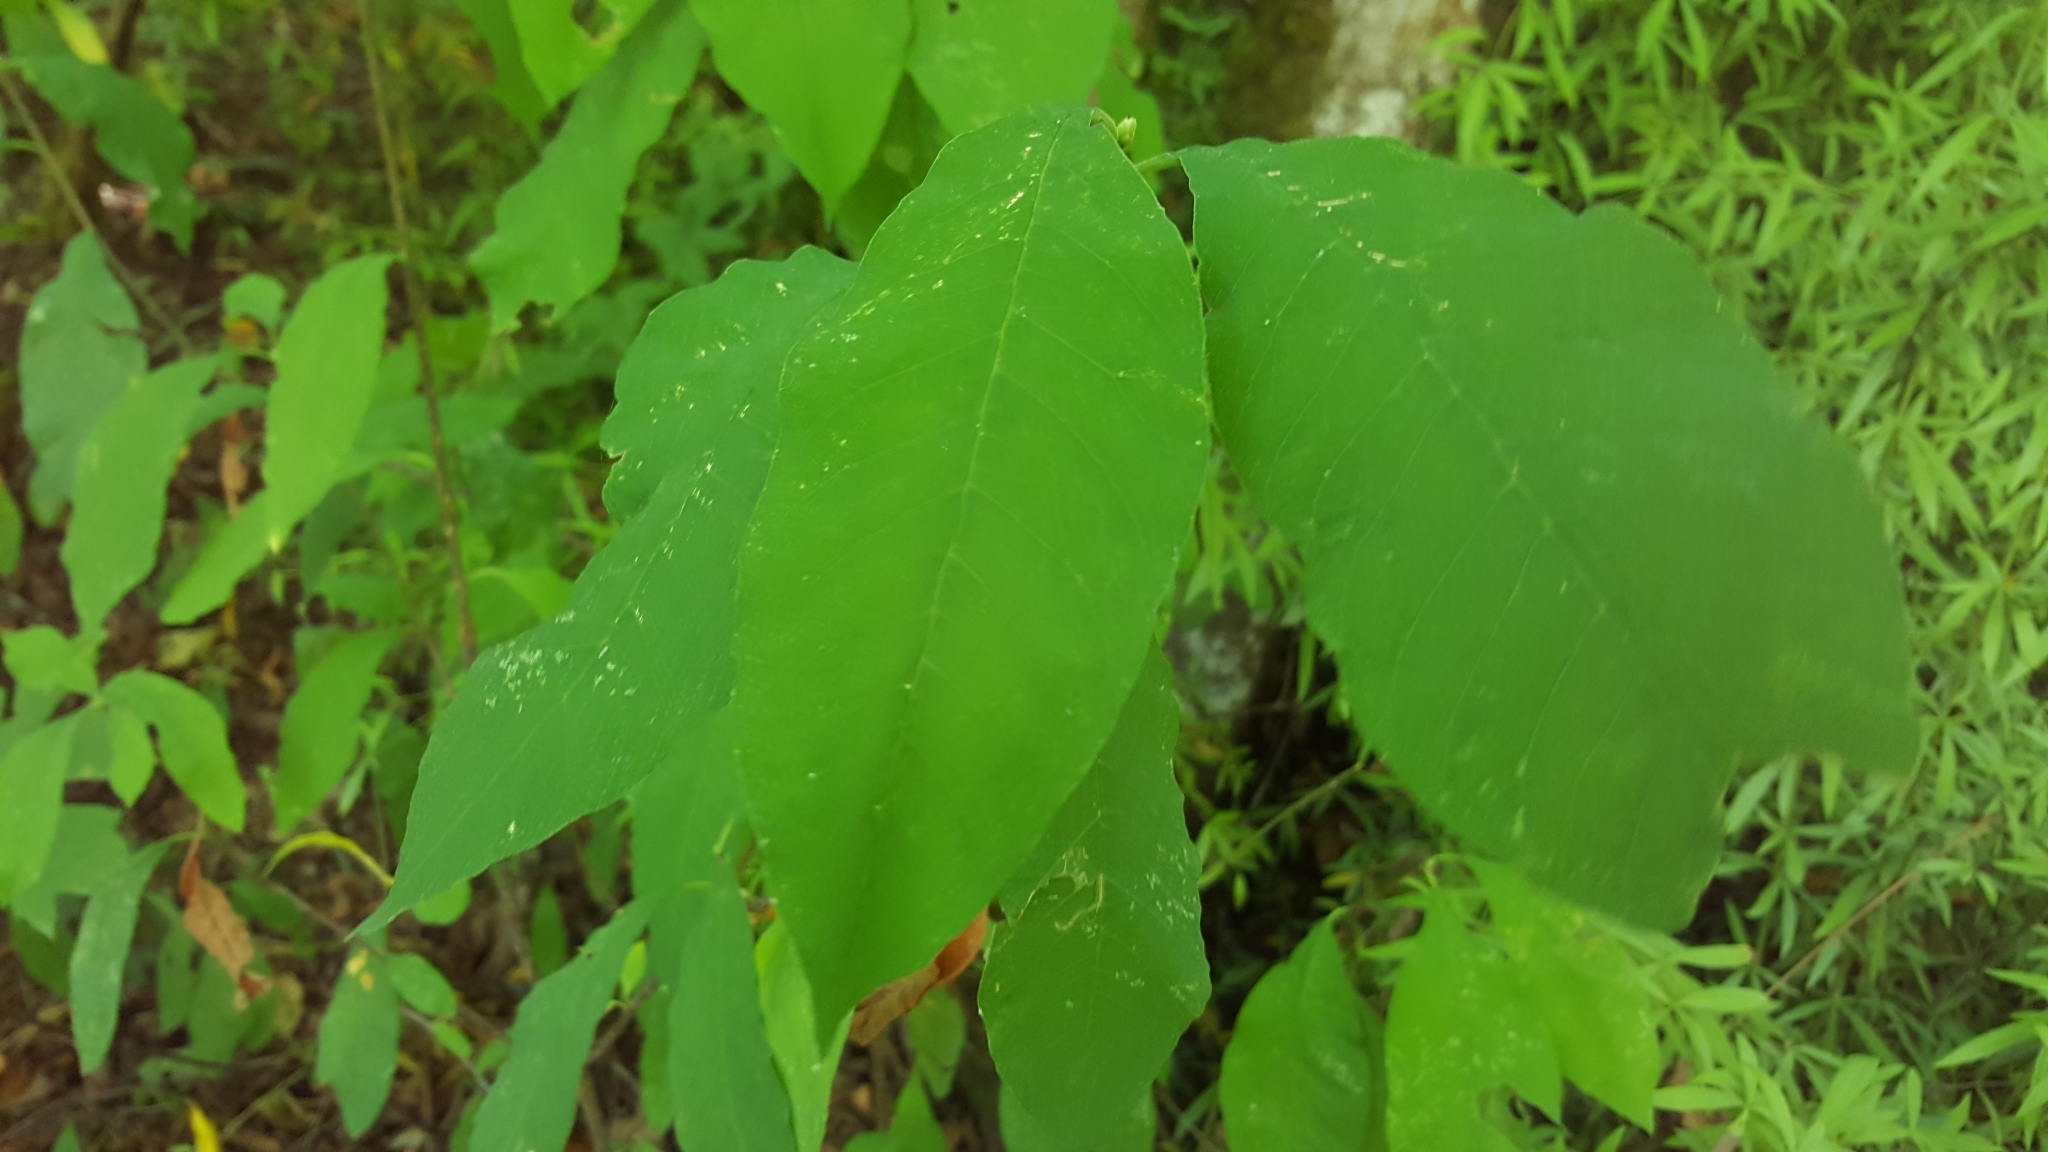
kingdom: Plantae
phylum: Tracheophyta
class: Magnoliopsida
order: Rosales
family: Rosaceae
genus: Oemleria
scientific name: Oemleria cerasiformis
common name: Osoberry
